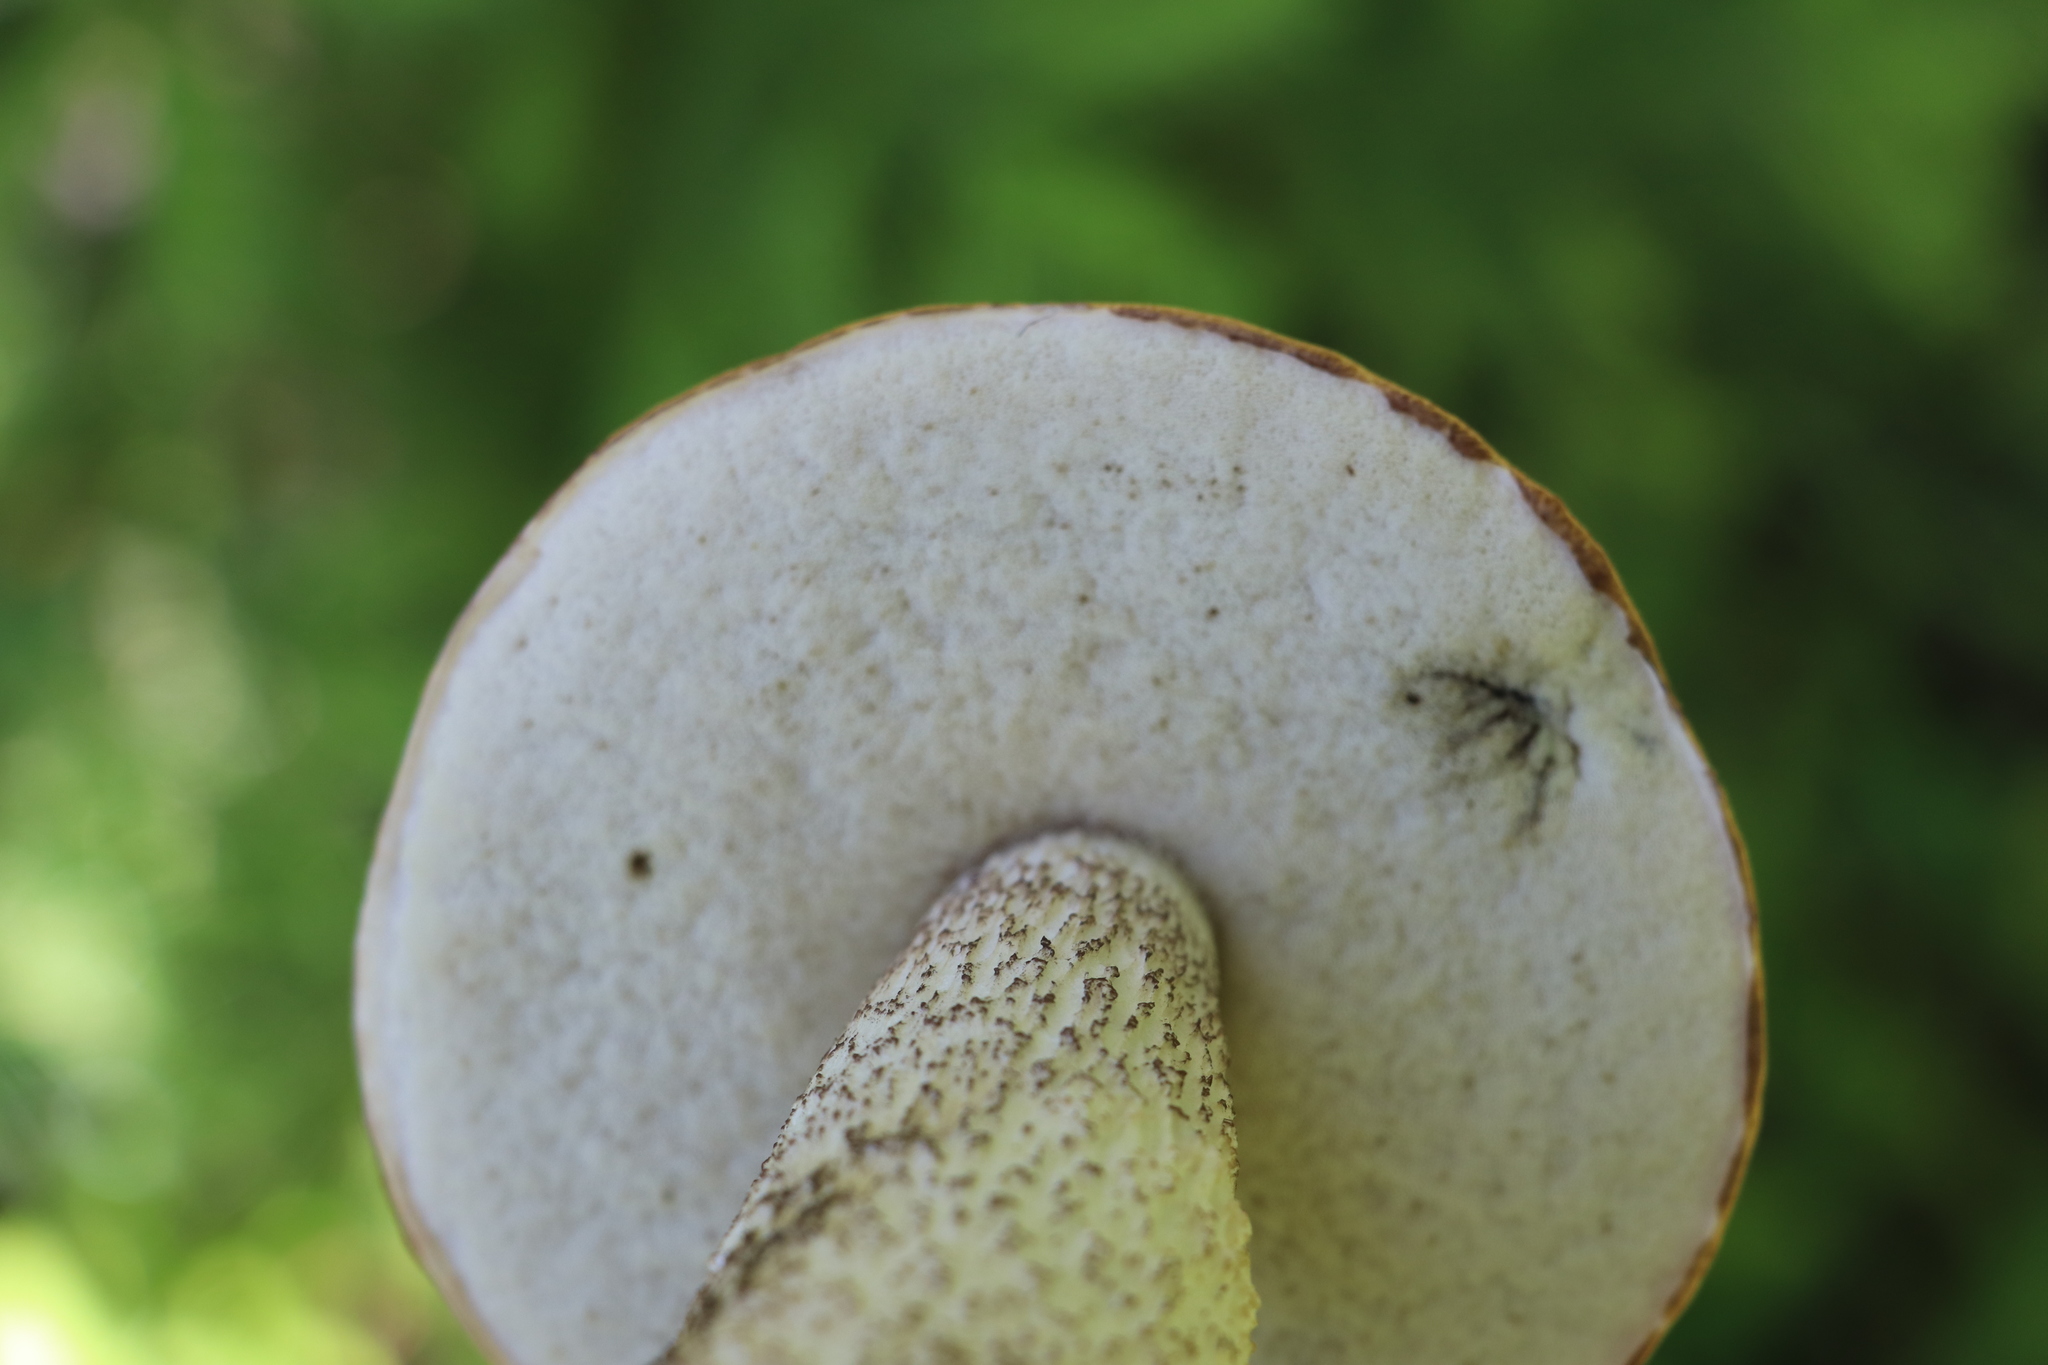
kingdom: Fungi
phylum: Basidiomycota
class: Agaricomycetes
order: Boletales
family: Boletaceae
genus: Leccinum
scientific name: Leccinum albostipitatum
